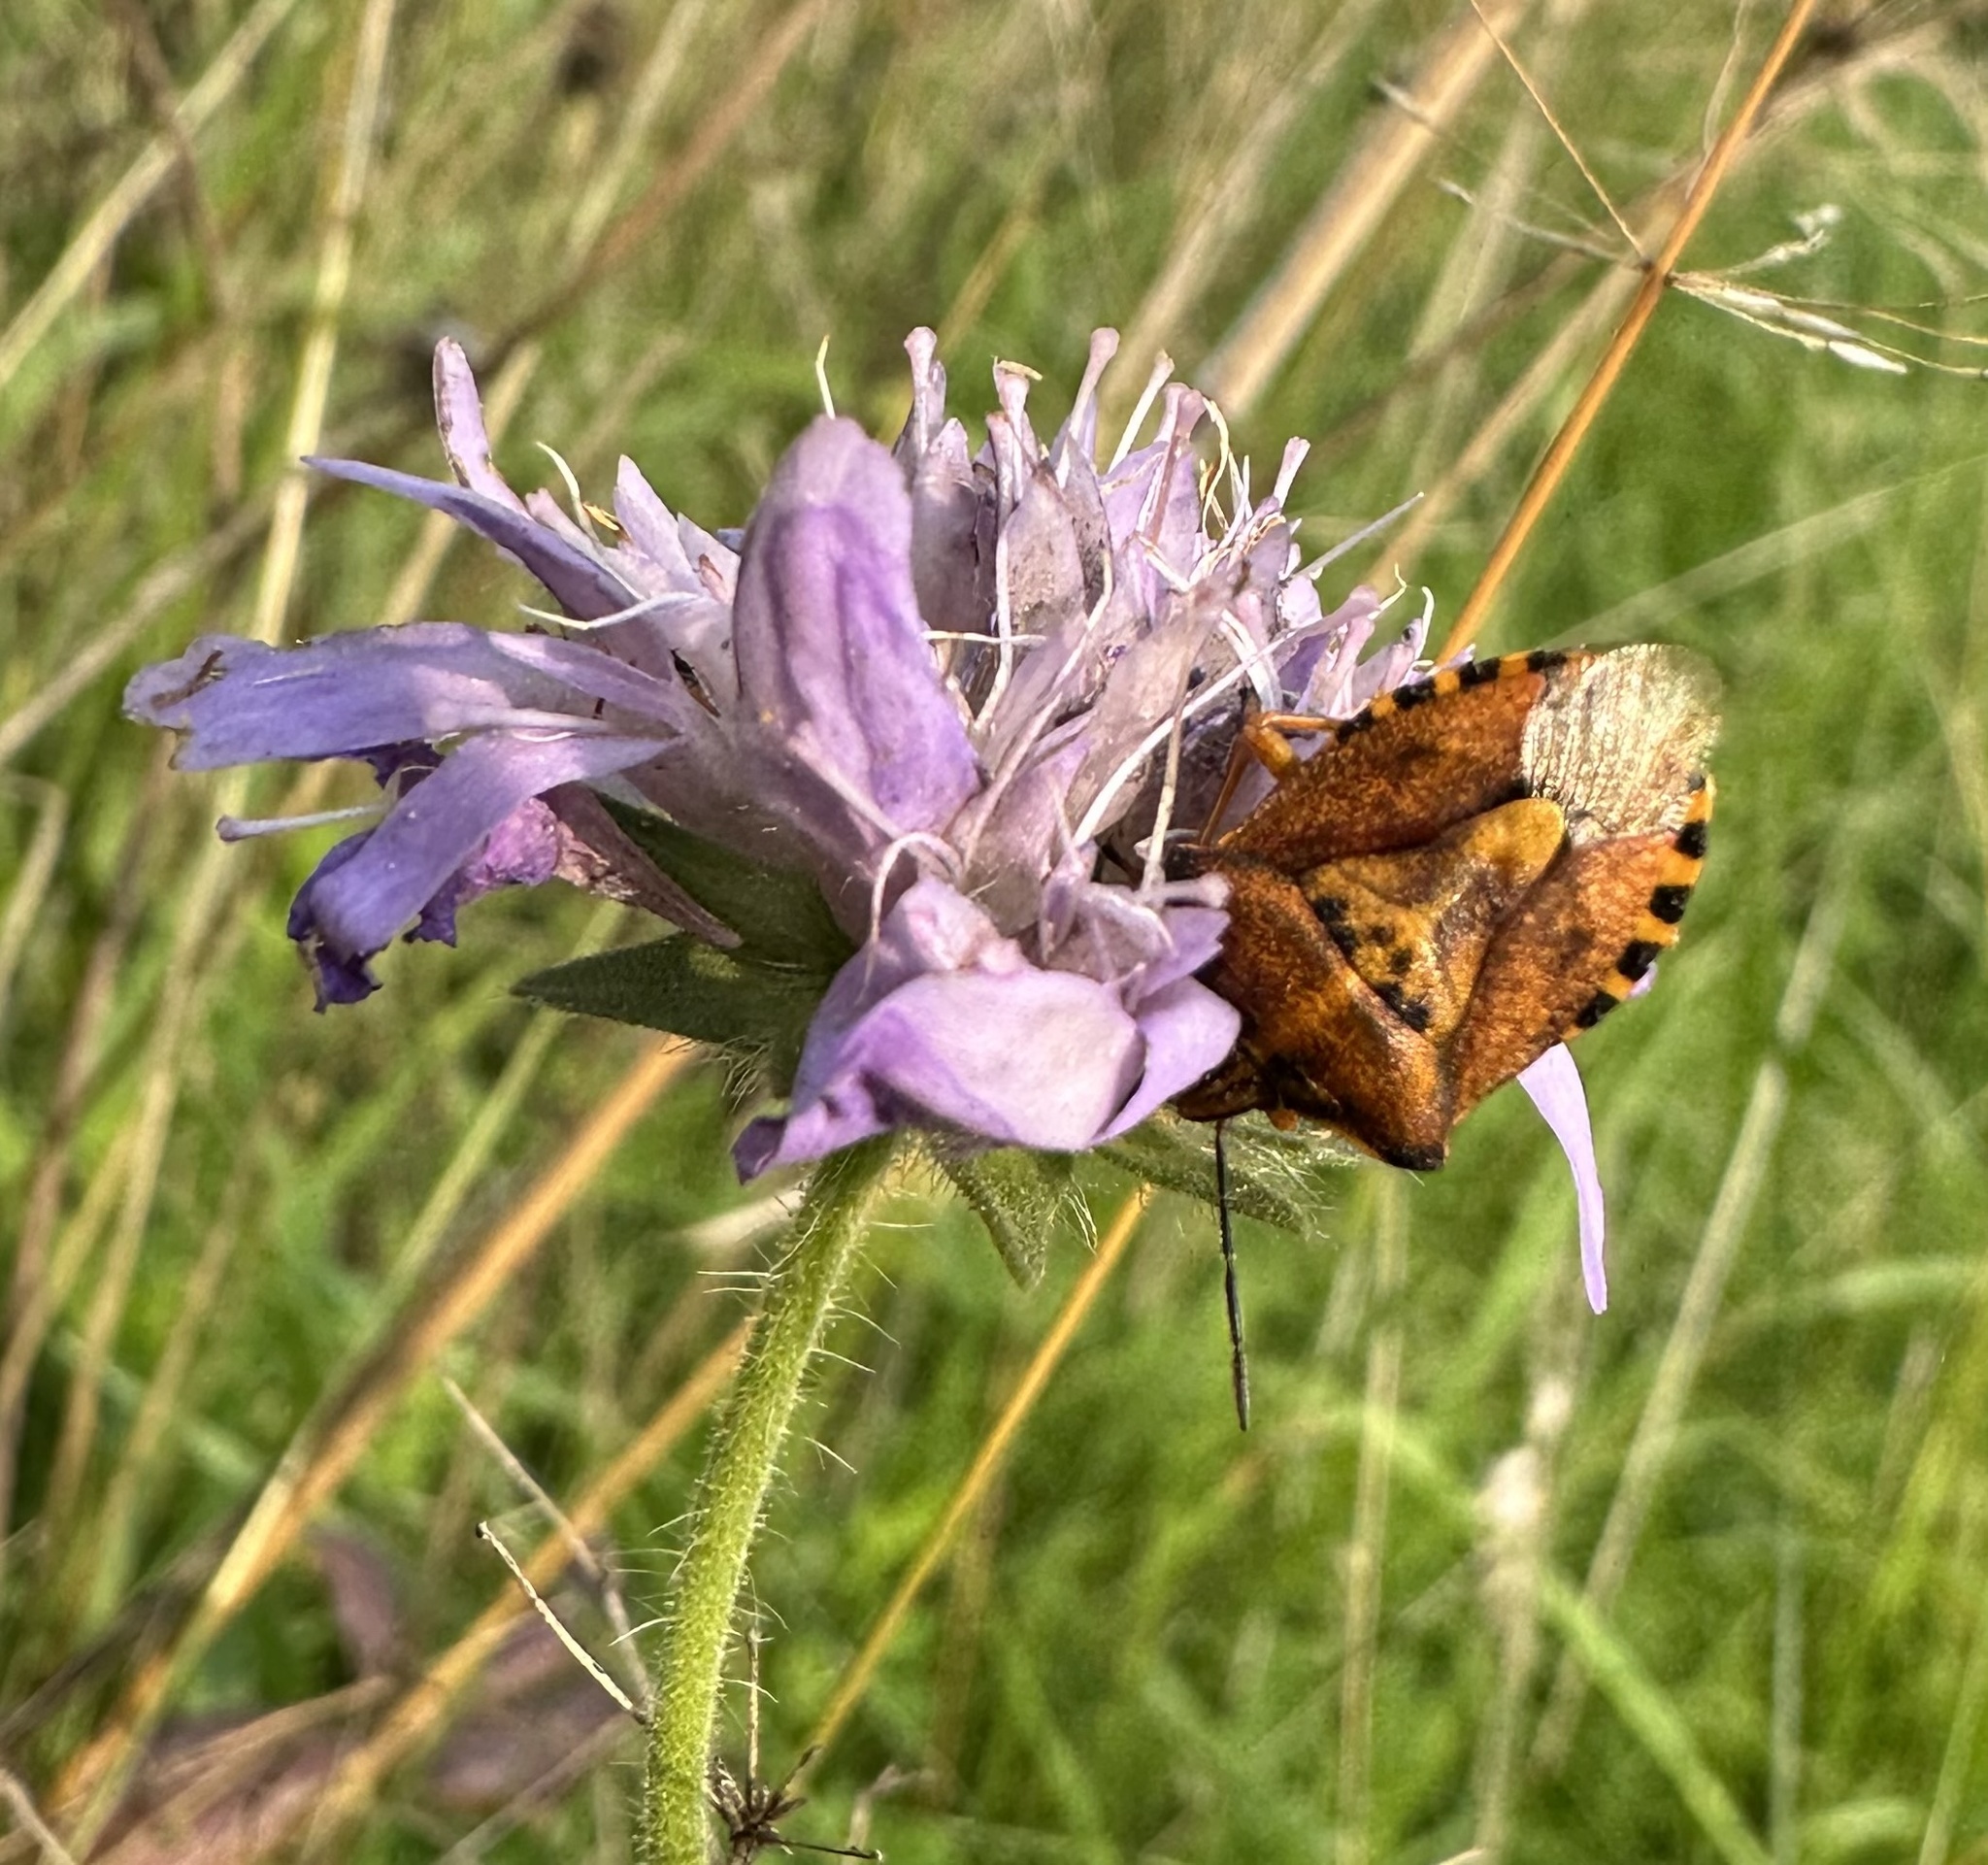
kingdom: Animalia
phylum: Arthropoda
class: Insecta
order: Hemiptera
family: Pentatomidae
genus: Carpocoris
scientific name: Carpocoris purpureipennis
